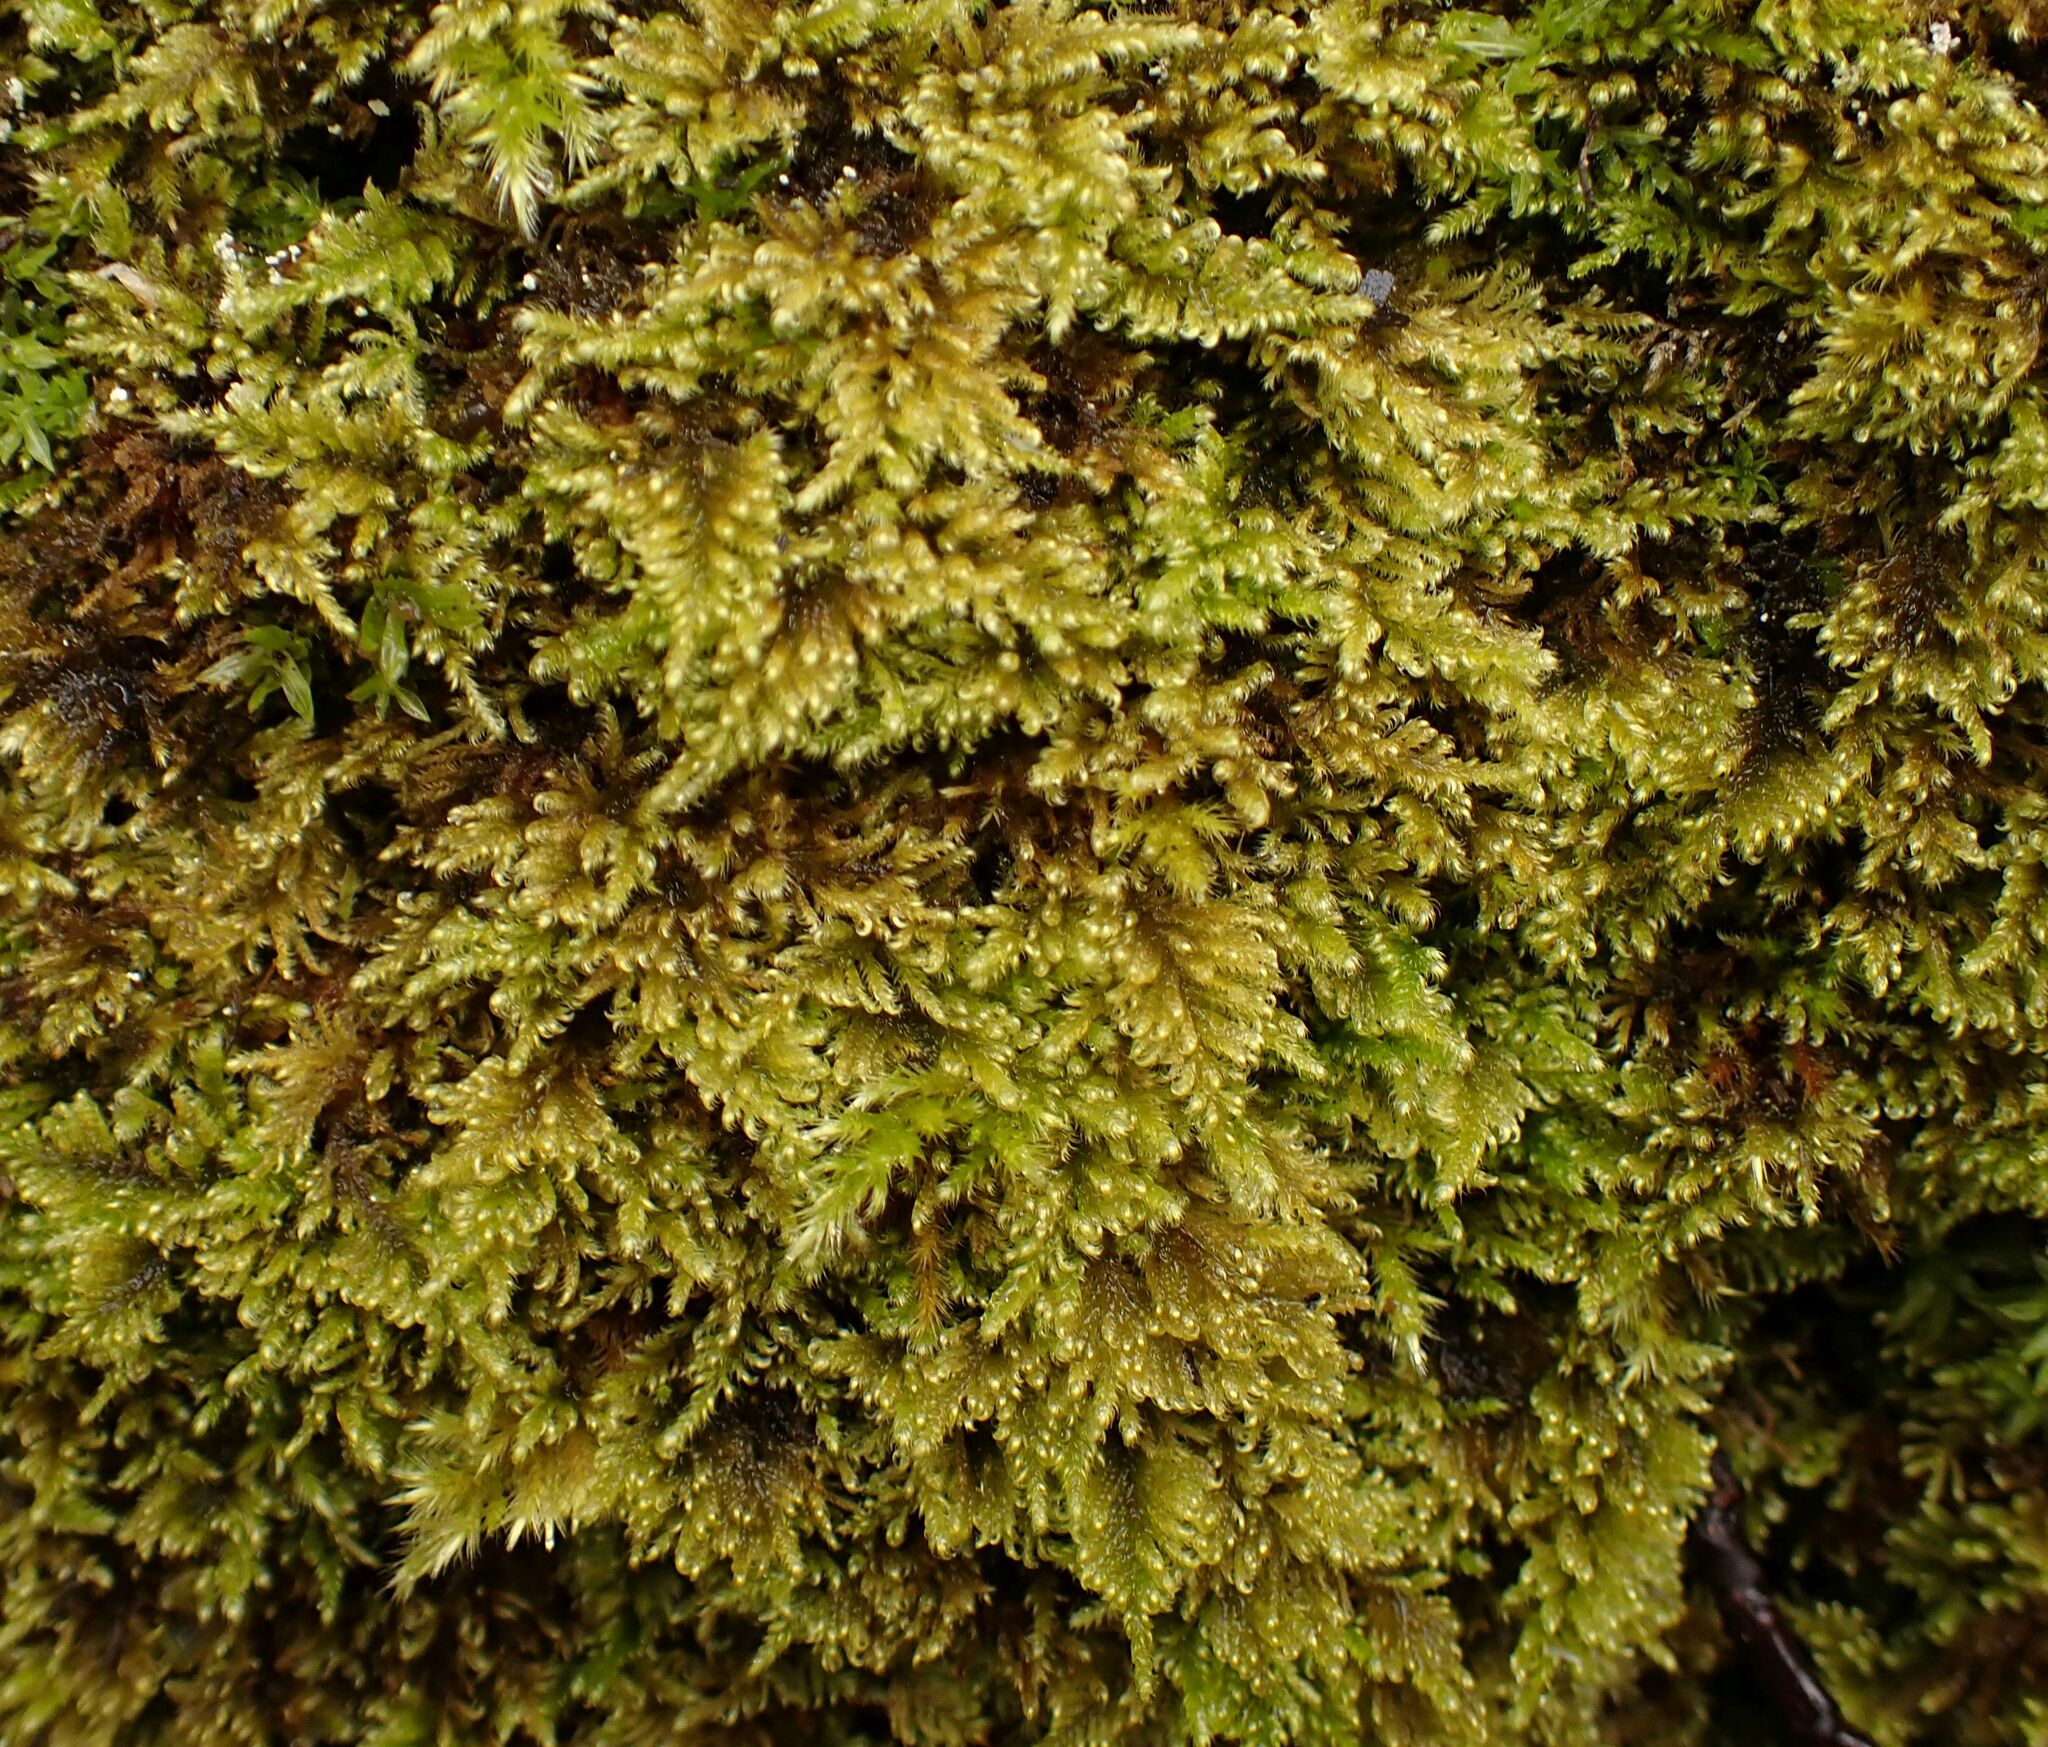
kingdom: Plantae
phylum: Bryophyta
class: Bryopsida
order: Hypnales
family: Myuriaceae
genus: Ctenidium
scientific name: Ctenidium molluscum
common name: Chalk comb-moss
